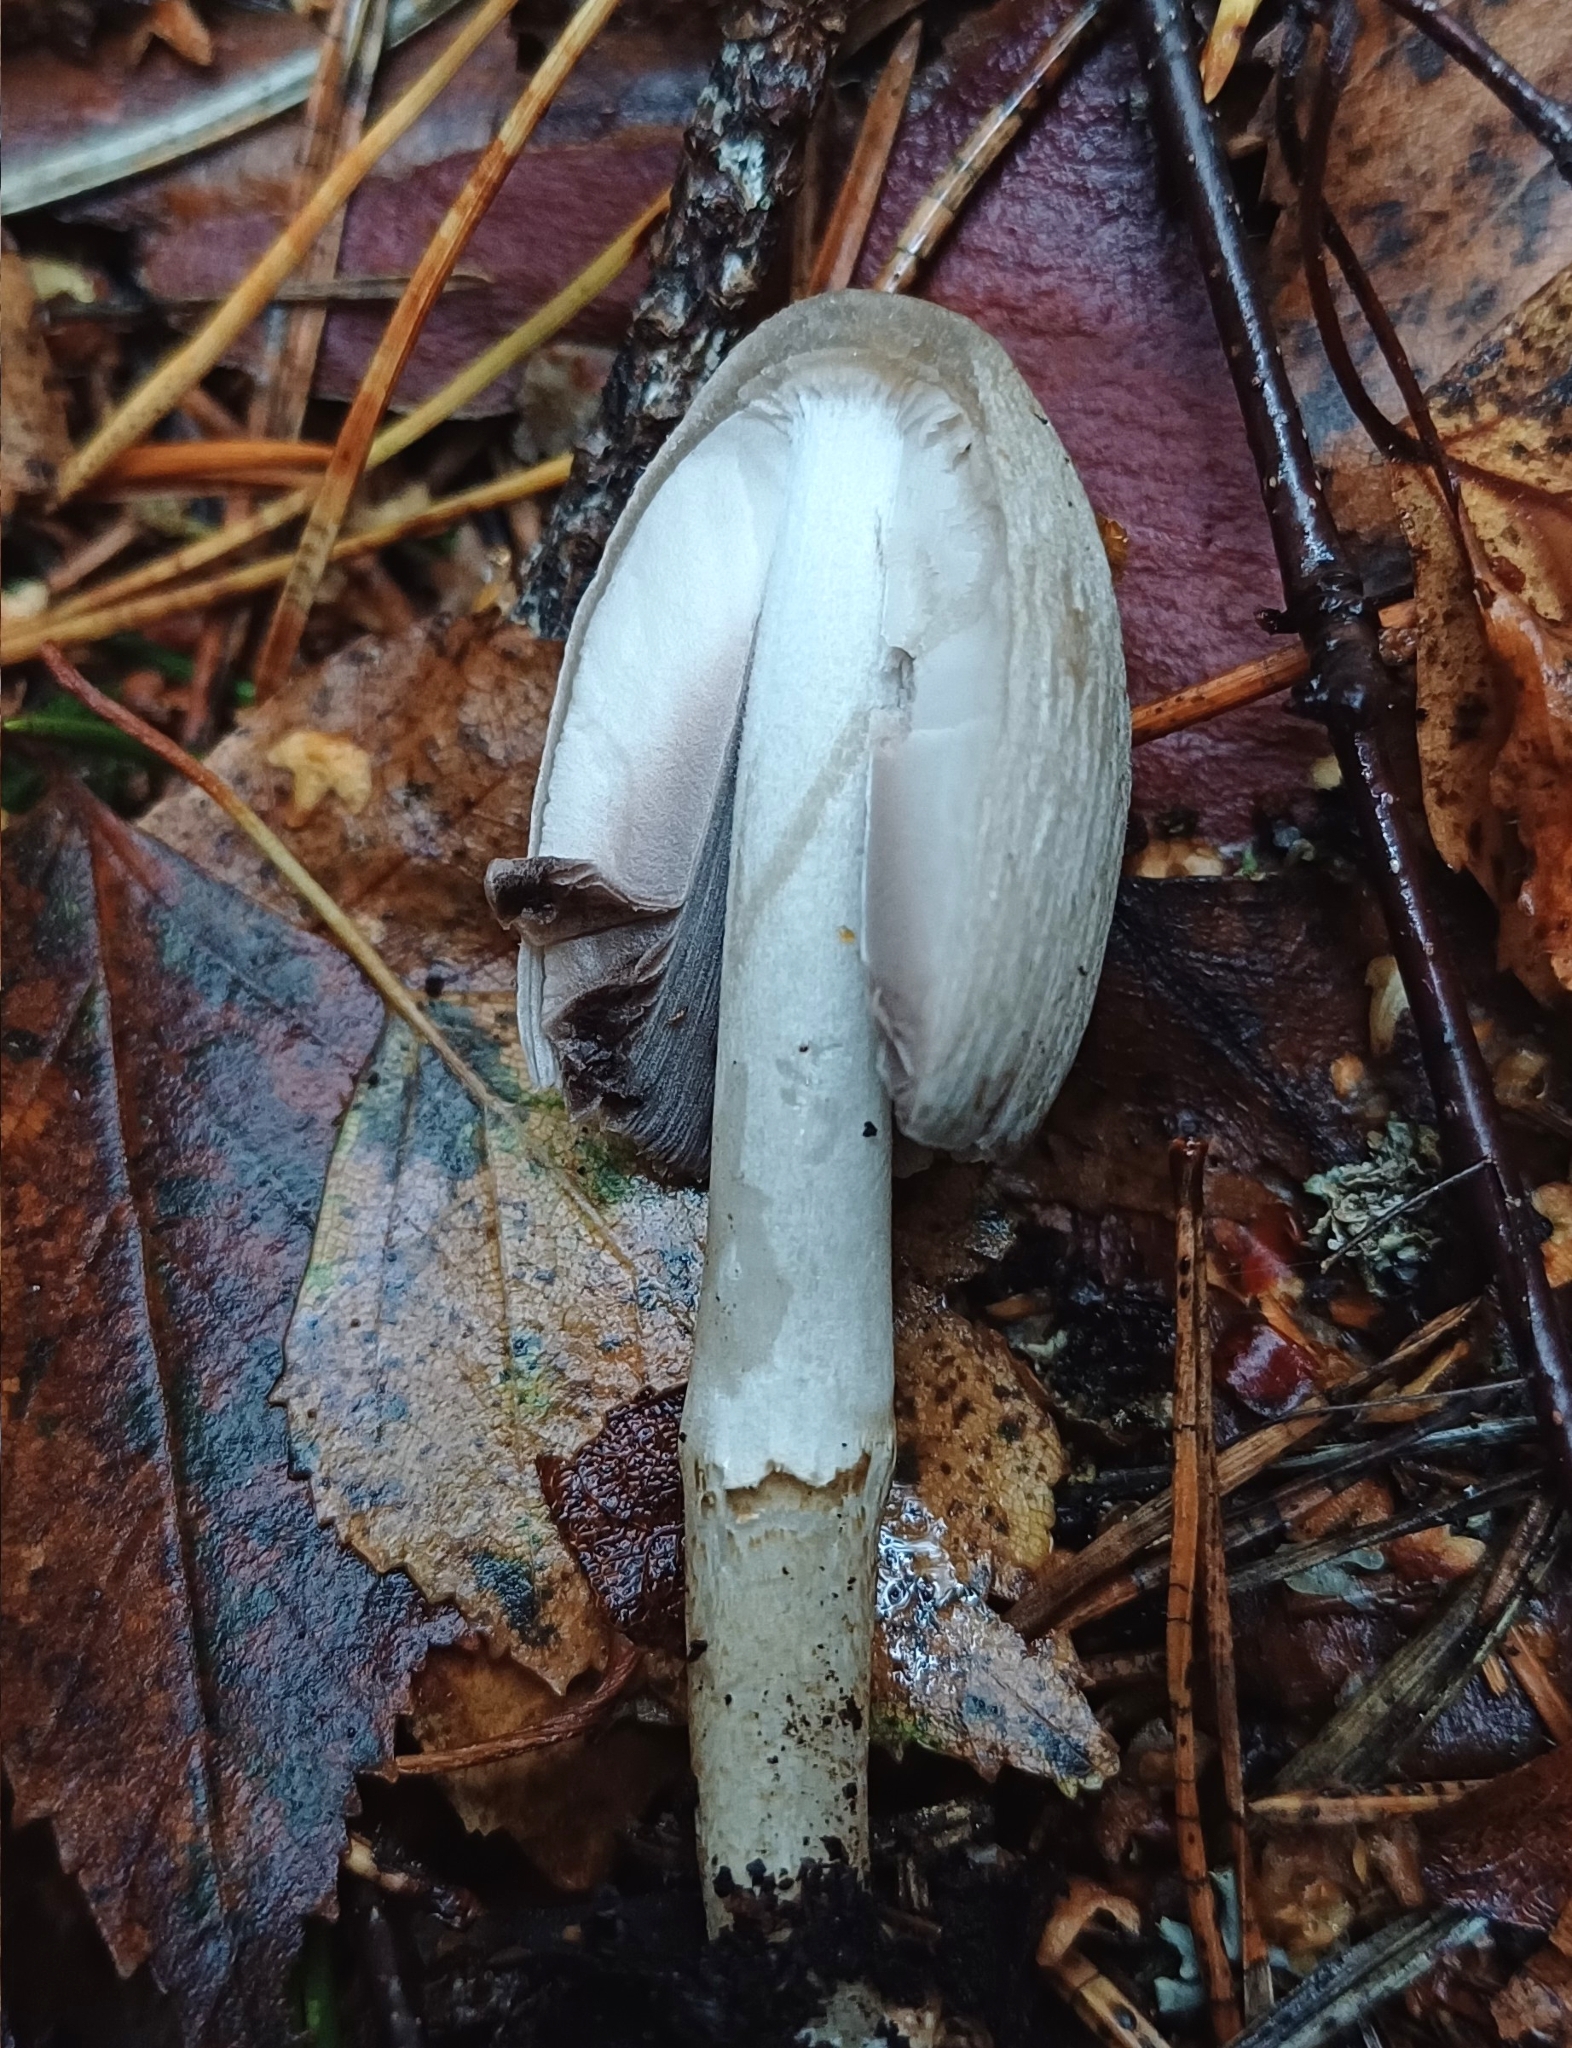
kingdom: Fungi
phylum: Basidiomycota
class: Agaricomycetes
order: Agaricales
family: Psathyrellaceae
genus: Coprinopsis
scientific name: Coprinopsis atramentaria
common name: Common ink-cap
